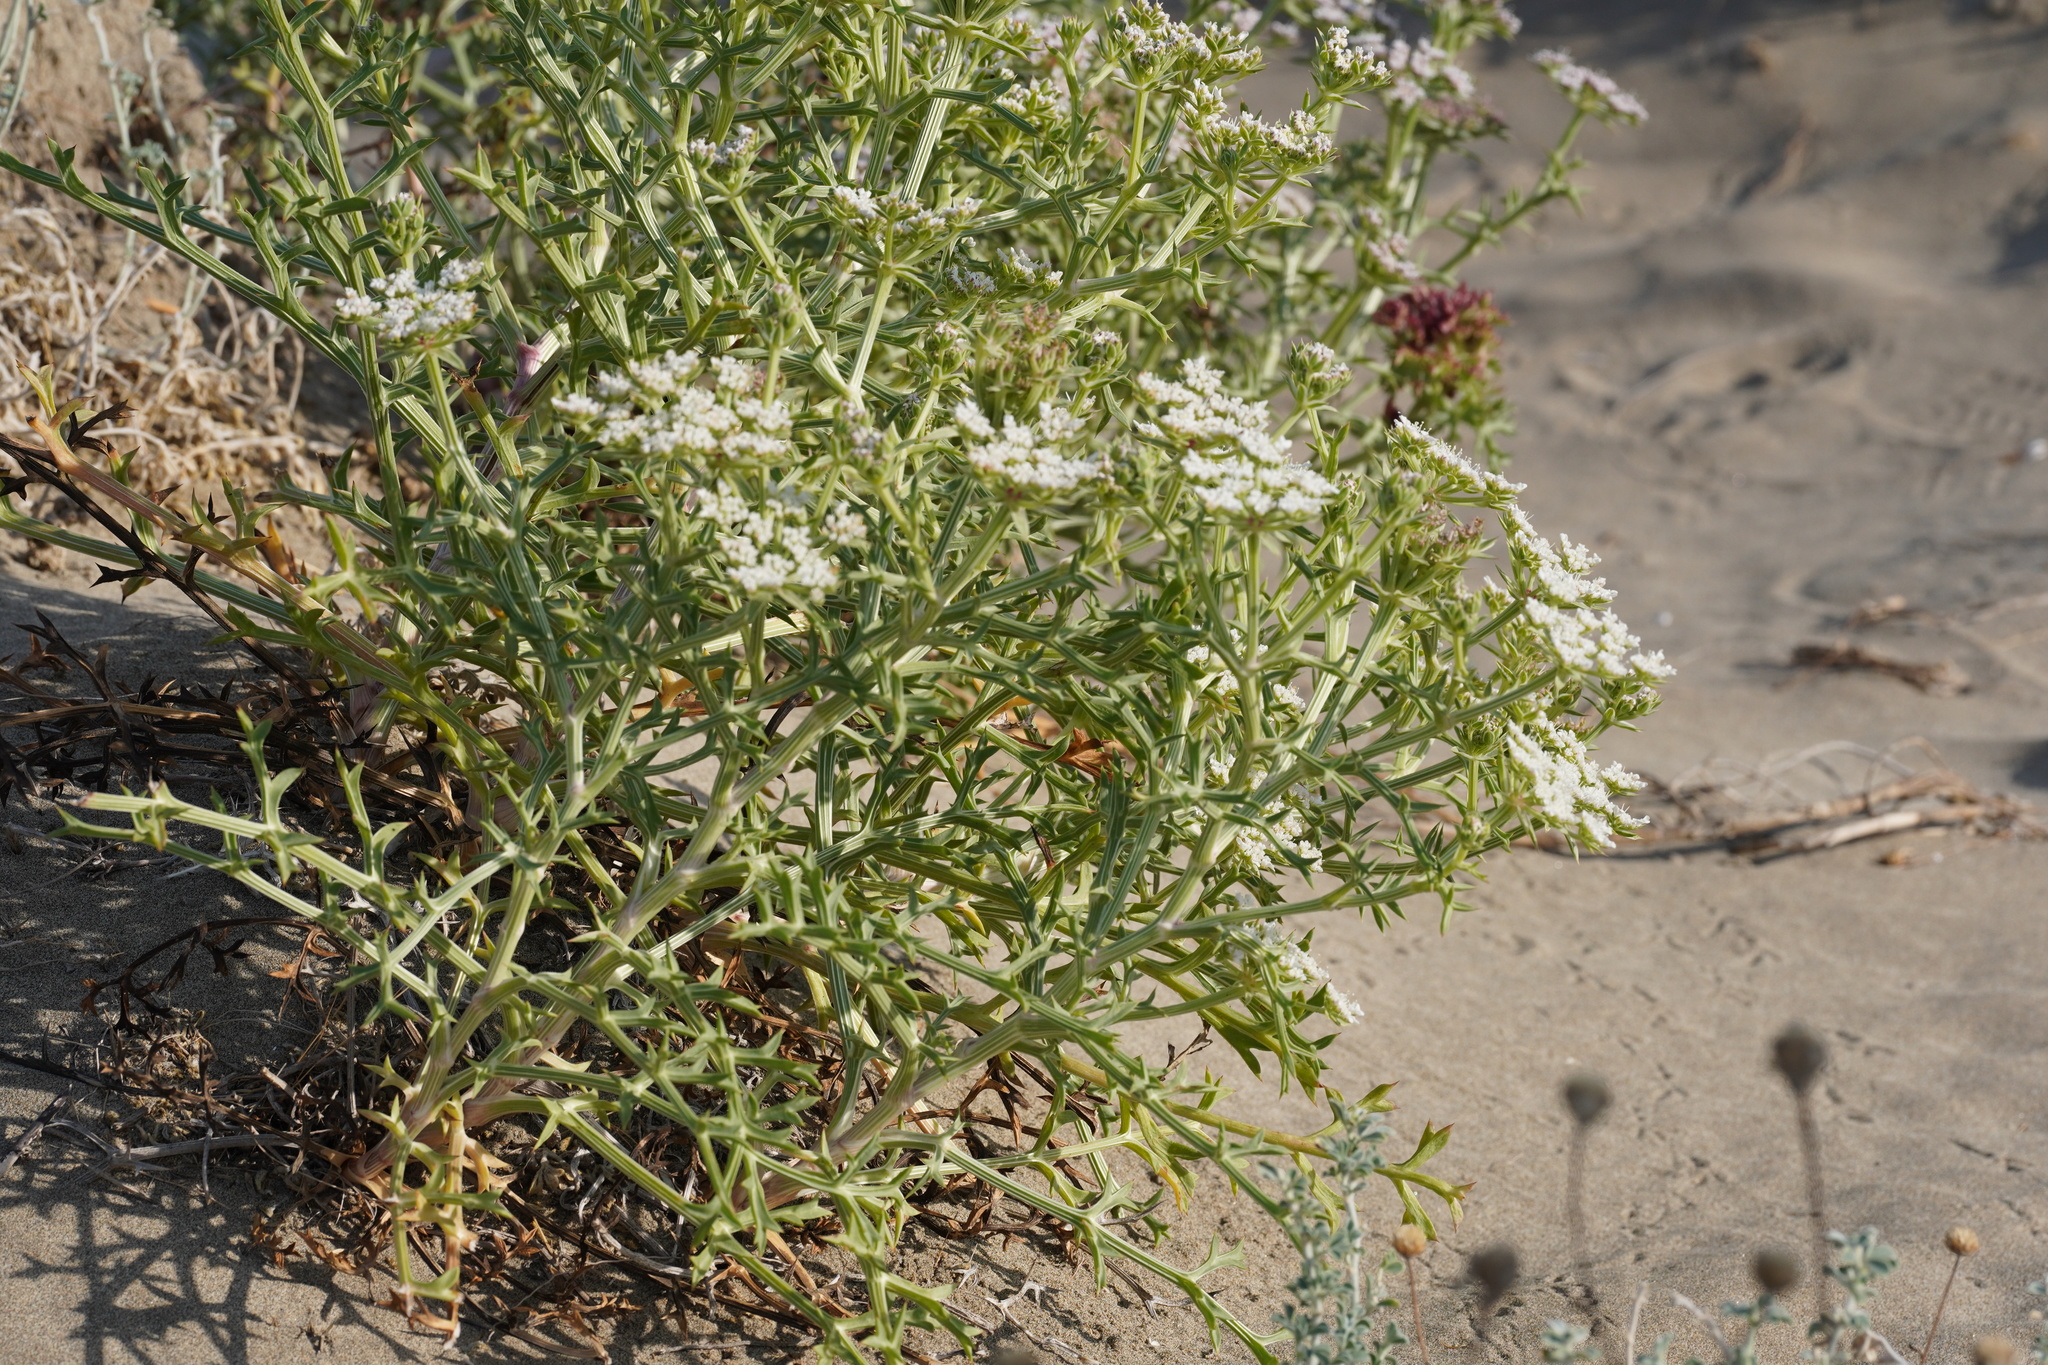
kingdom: Plantae
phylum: Tracheophyta
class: Magnoliopsida
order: Apiales
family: Apiaceae
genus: Echinophora
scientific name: Echinophora spinosa
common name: Prickly samphire
